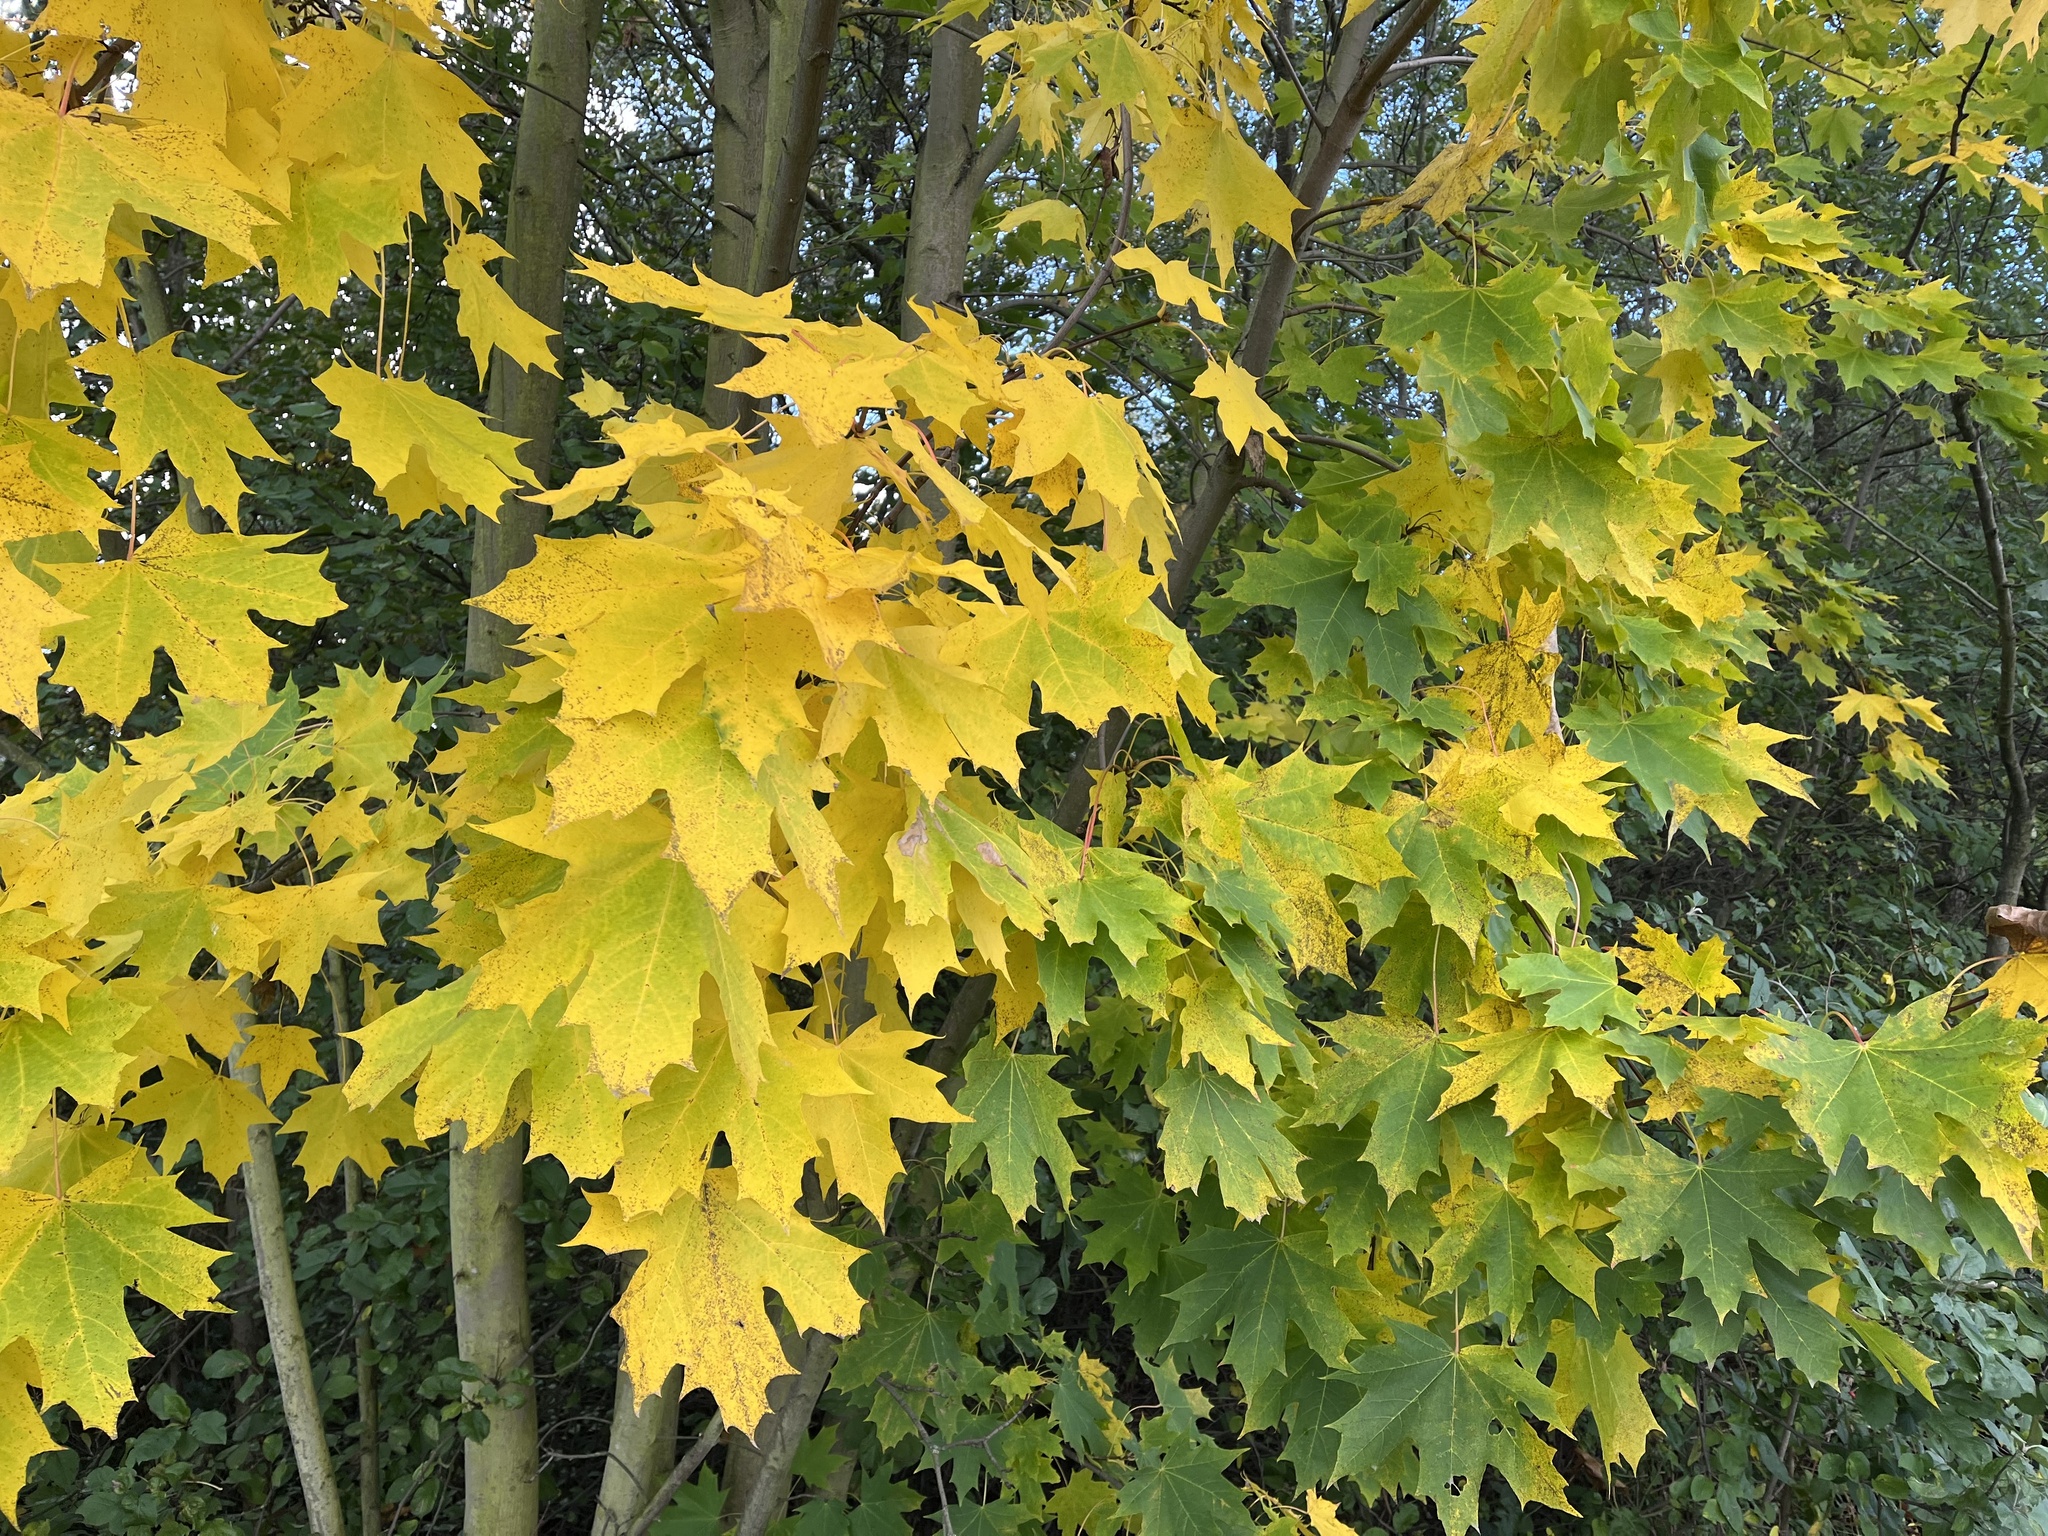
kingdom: Plantae
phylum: Tracheophyta
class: Magnoliopsida
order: Sapindales
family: Sapindaceae
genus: Acer
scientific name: Acer platanoides
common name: Norway maple
